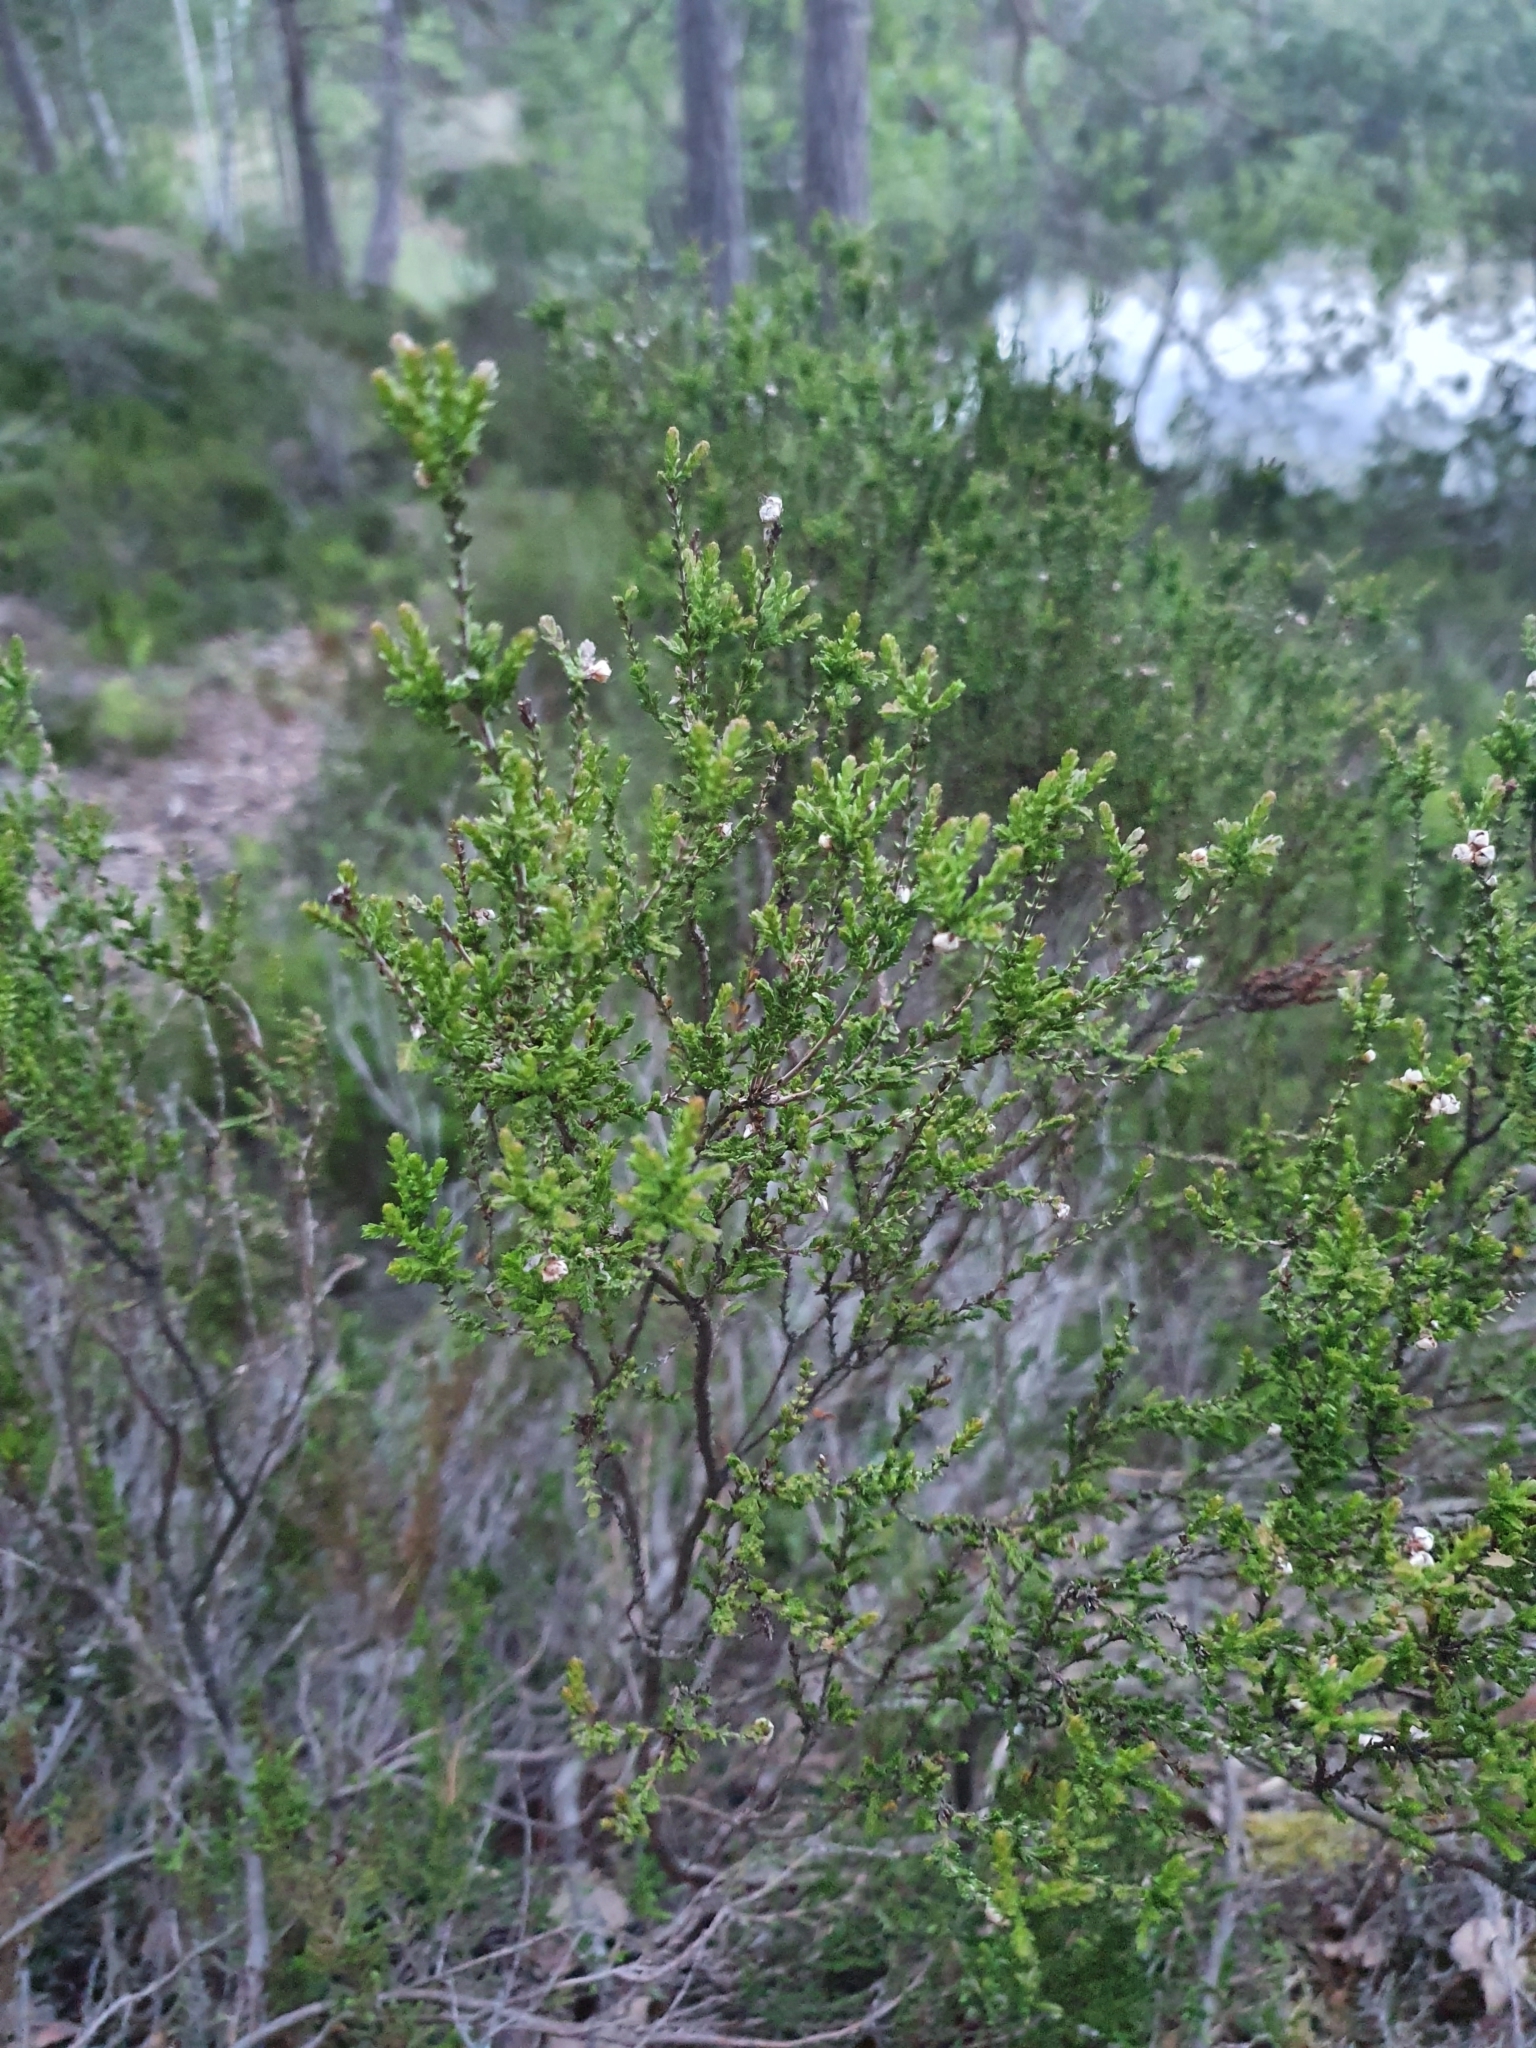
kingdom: Plantae
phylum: Tracheophyta
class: Magnoliopsida
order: Ericales
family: Ericaceae
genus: Calluna
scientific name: Calluna vulgaris
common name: Heather
